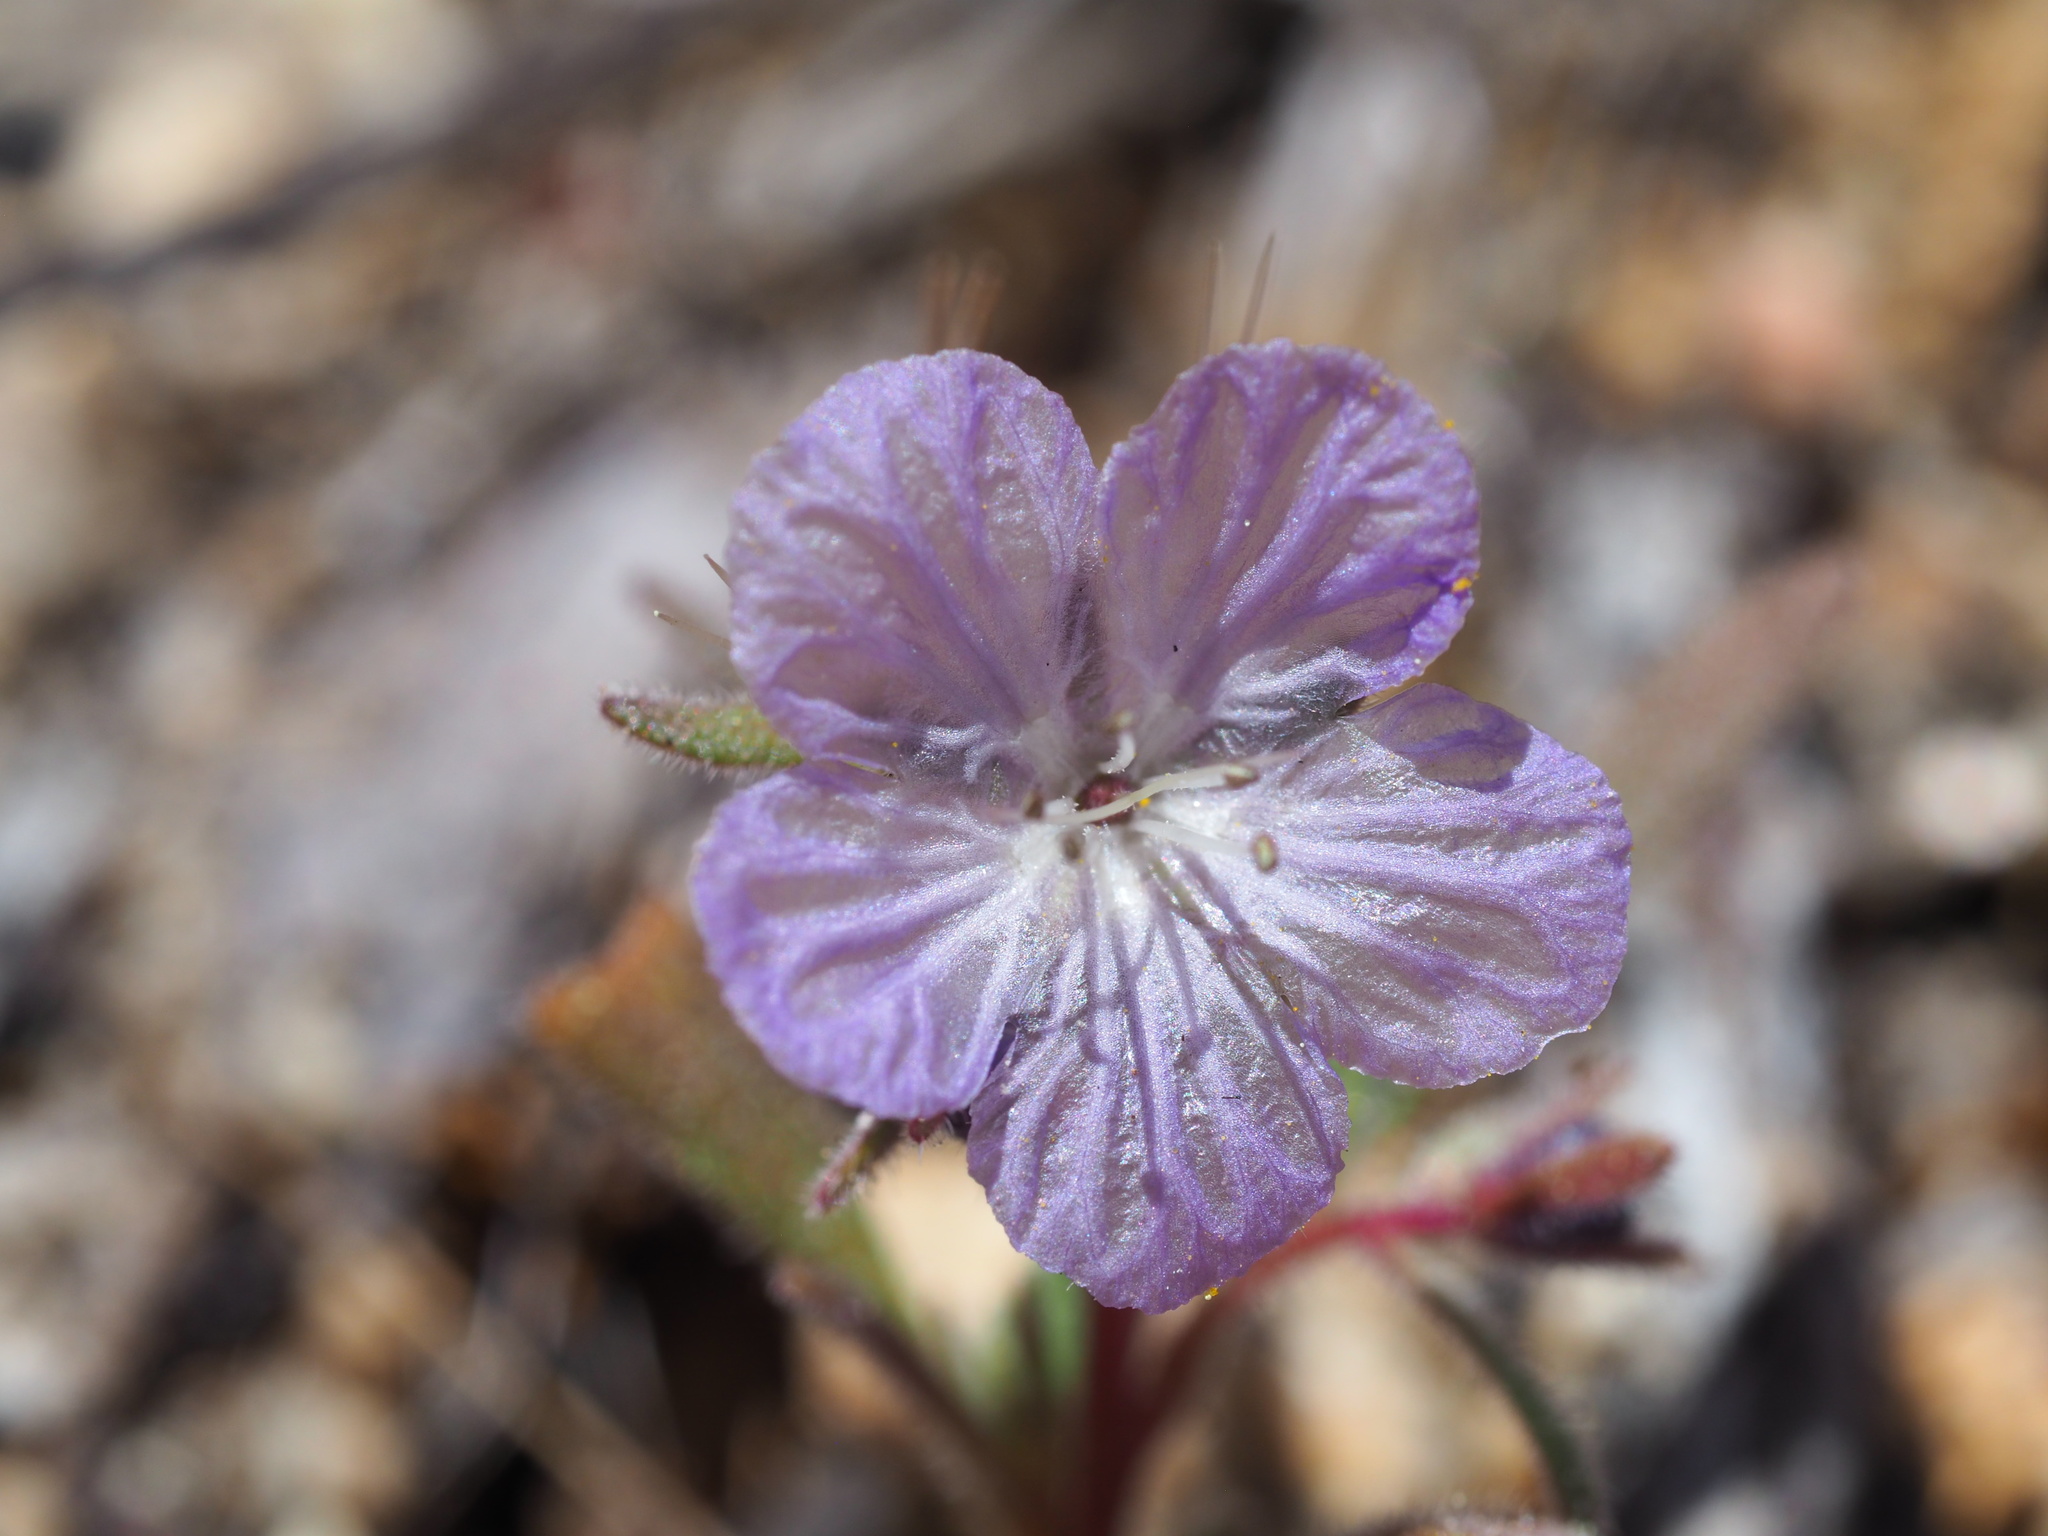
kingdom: Plantae
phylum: Tracheophyta
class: Magnoliopsida
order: Boraginales
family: Hydrophyllaceae
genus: Phacelia
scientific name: Phacelia exilis
